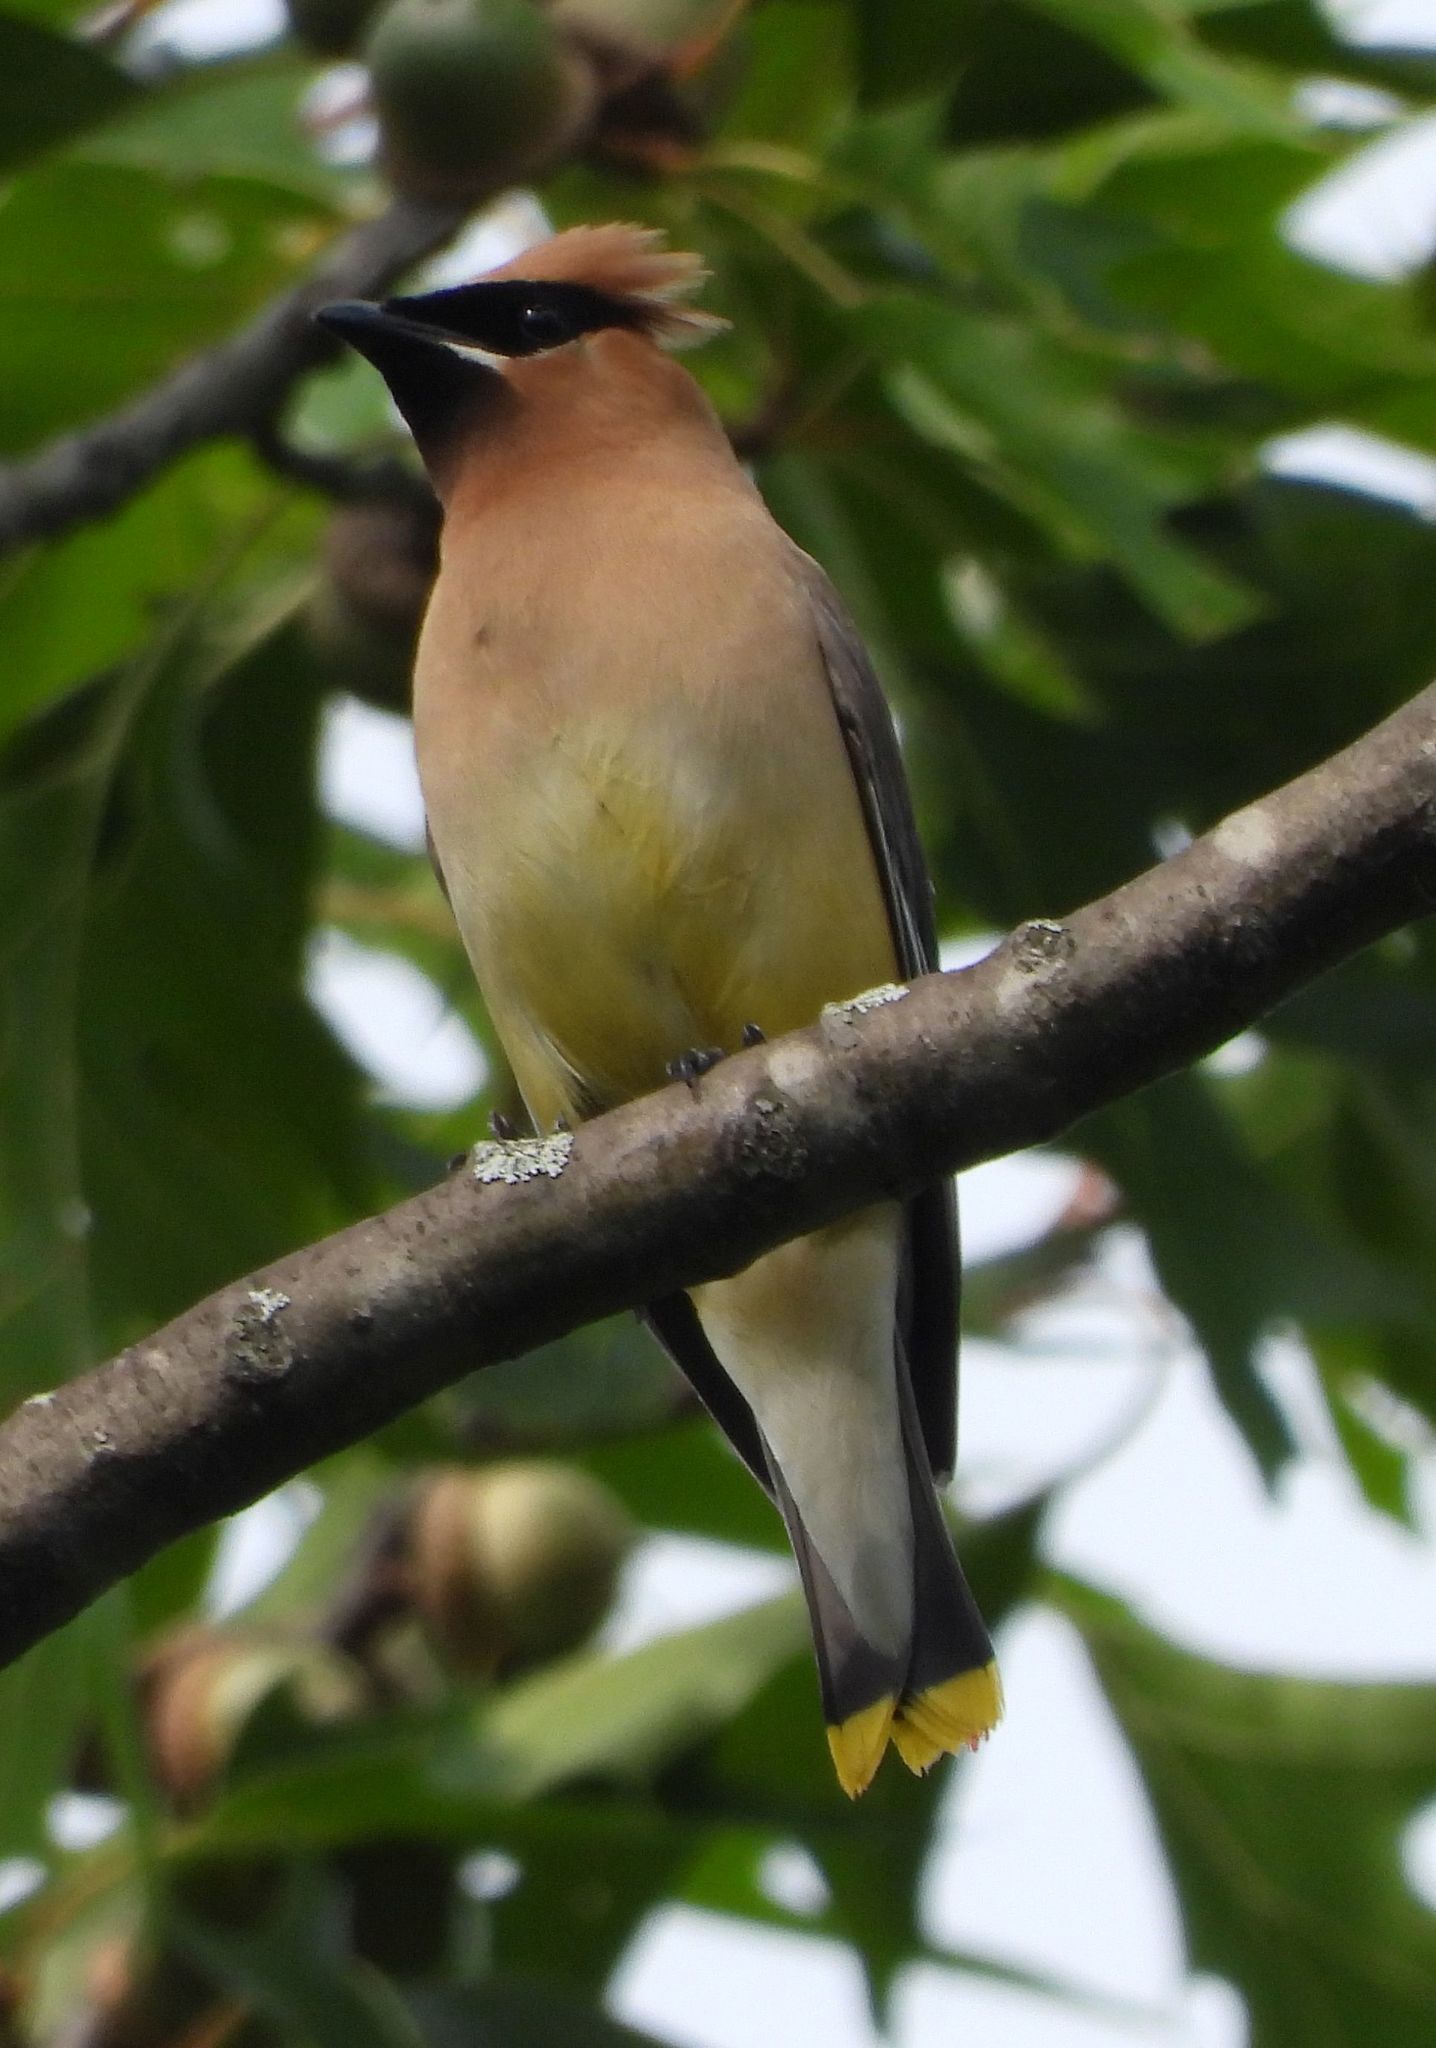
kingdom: Animalia
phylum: Chordata
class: Aves
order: Passeriformes
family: Bombycillidae
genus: Bombycilla
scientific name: Bombycilla cedrorum
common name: Cedar waxwing
